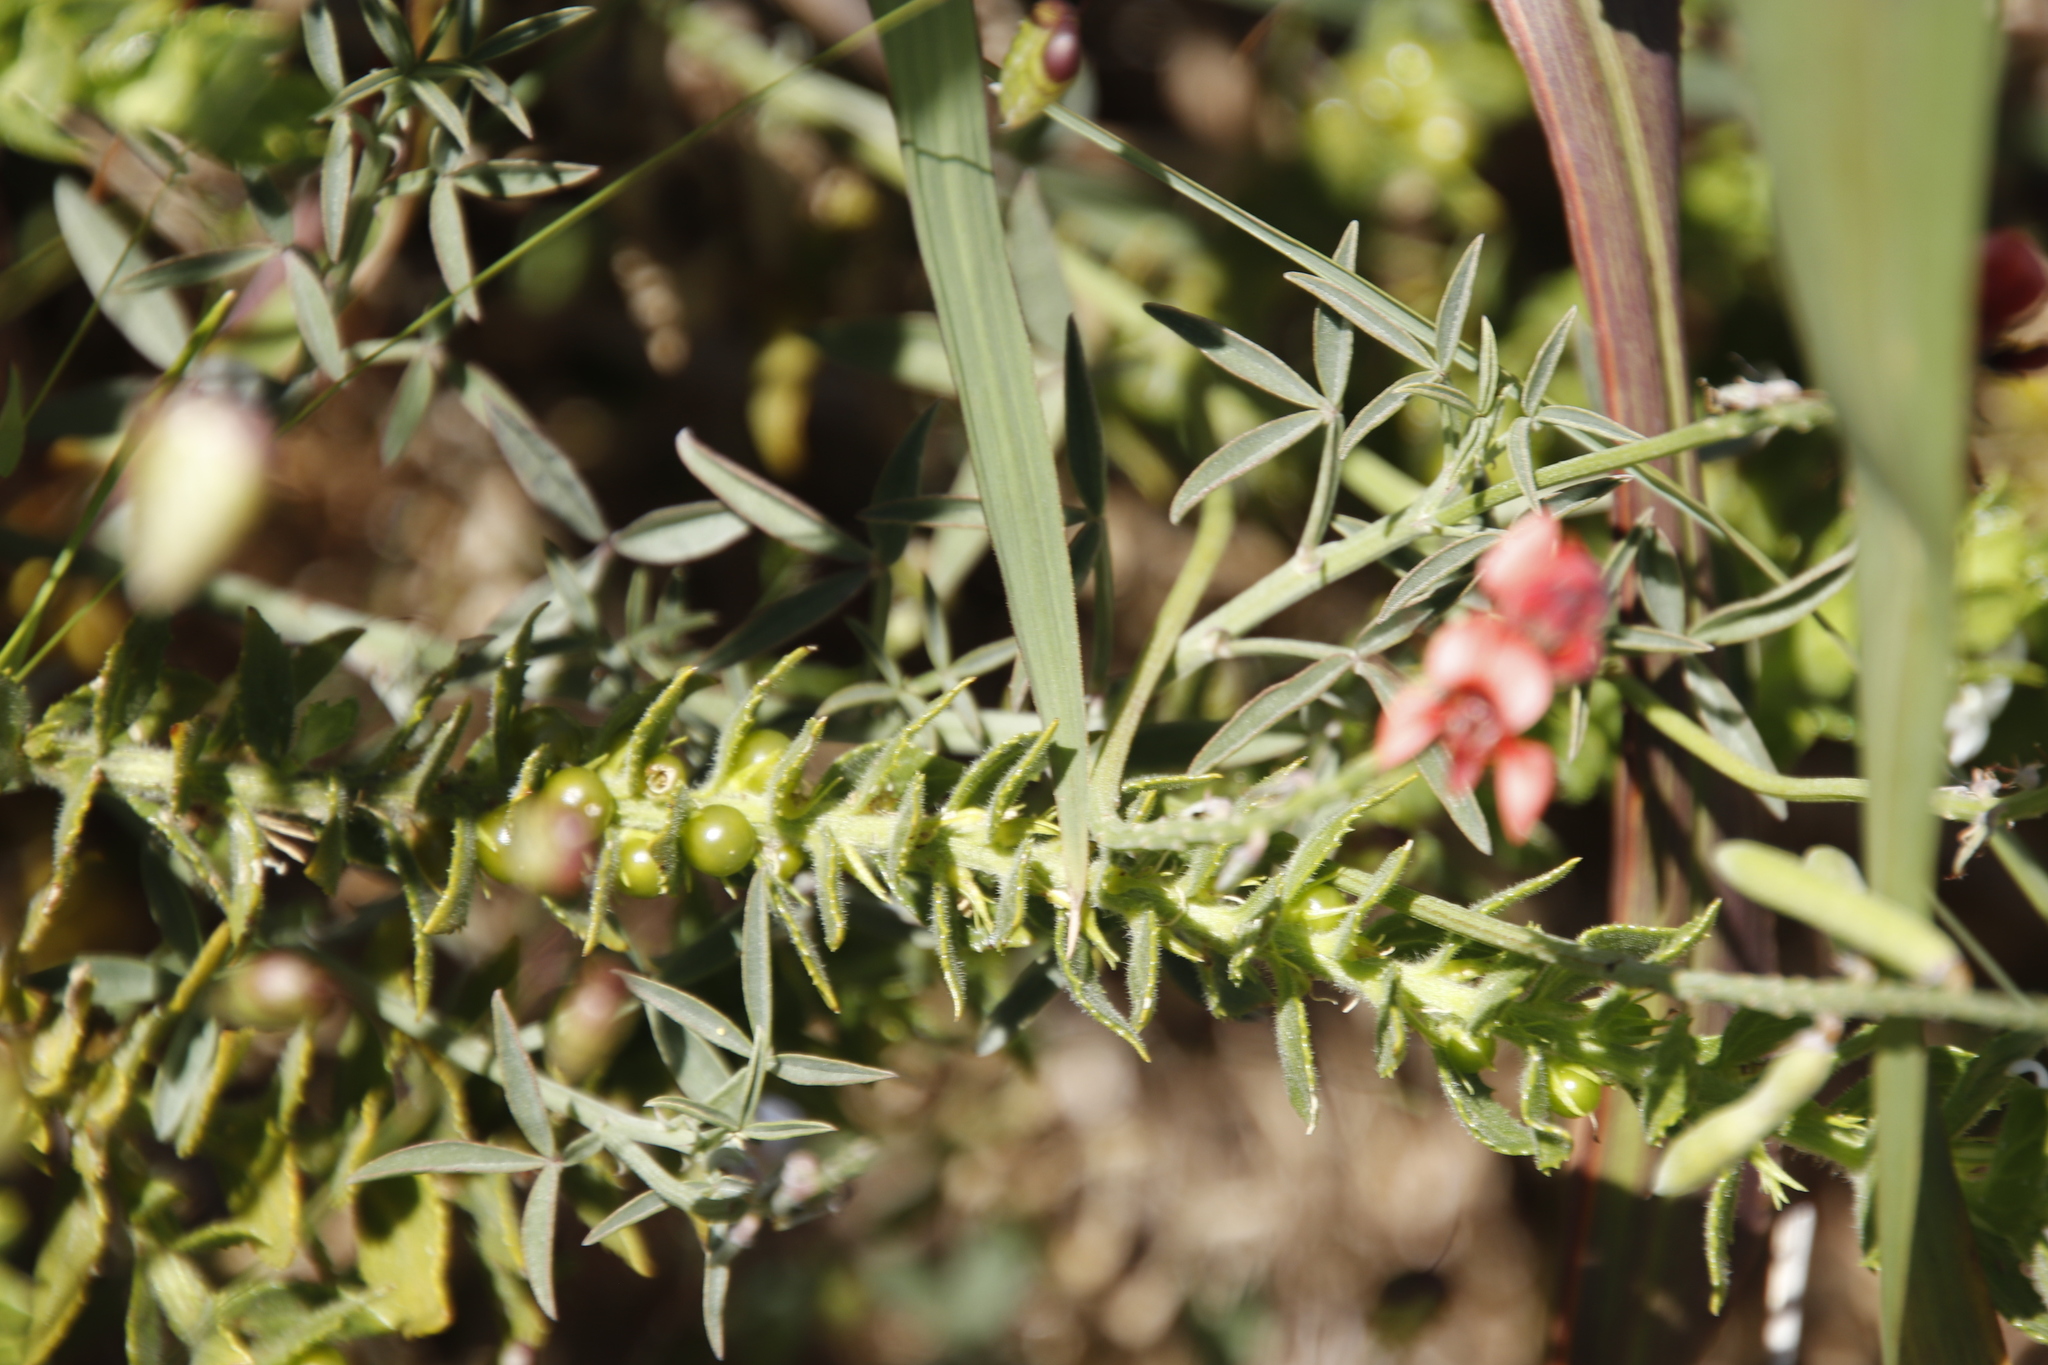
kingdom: Plantae
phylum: Tracheophyta
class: Magnoliopsida
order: Lamiales
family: Scrophulariaceae
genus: Oftia
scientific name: Oftia africana
